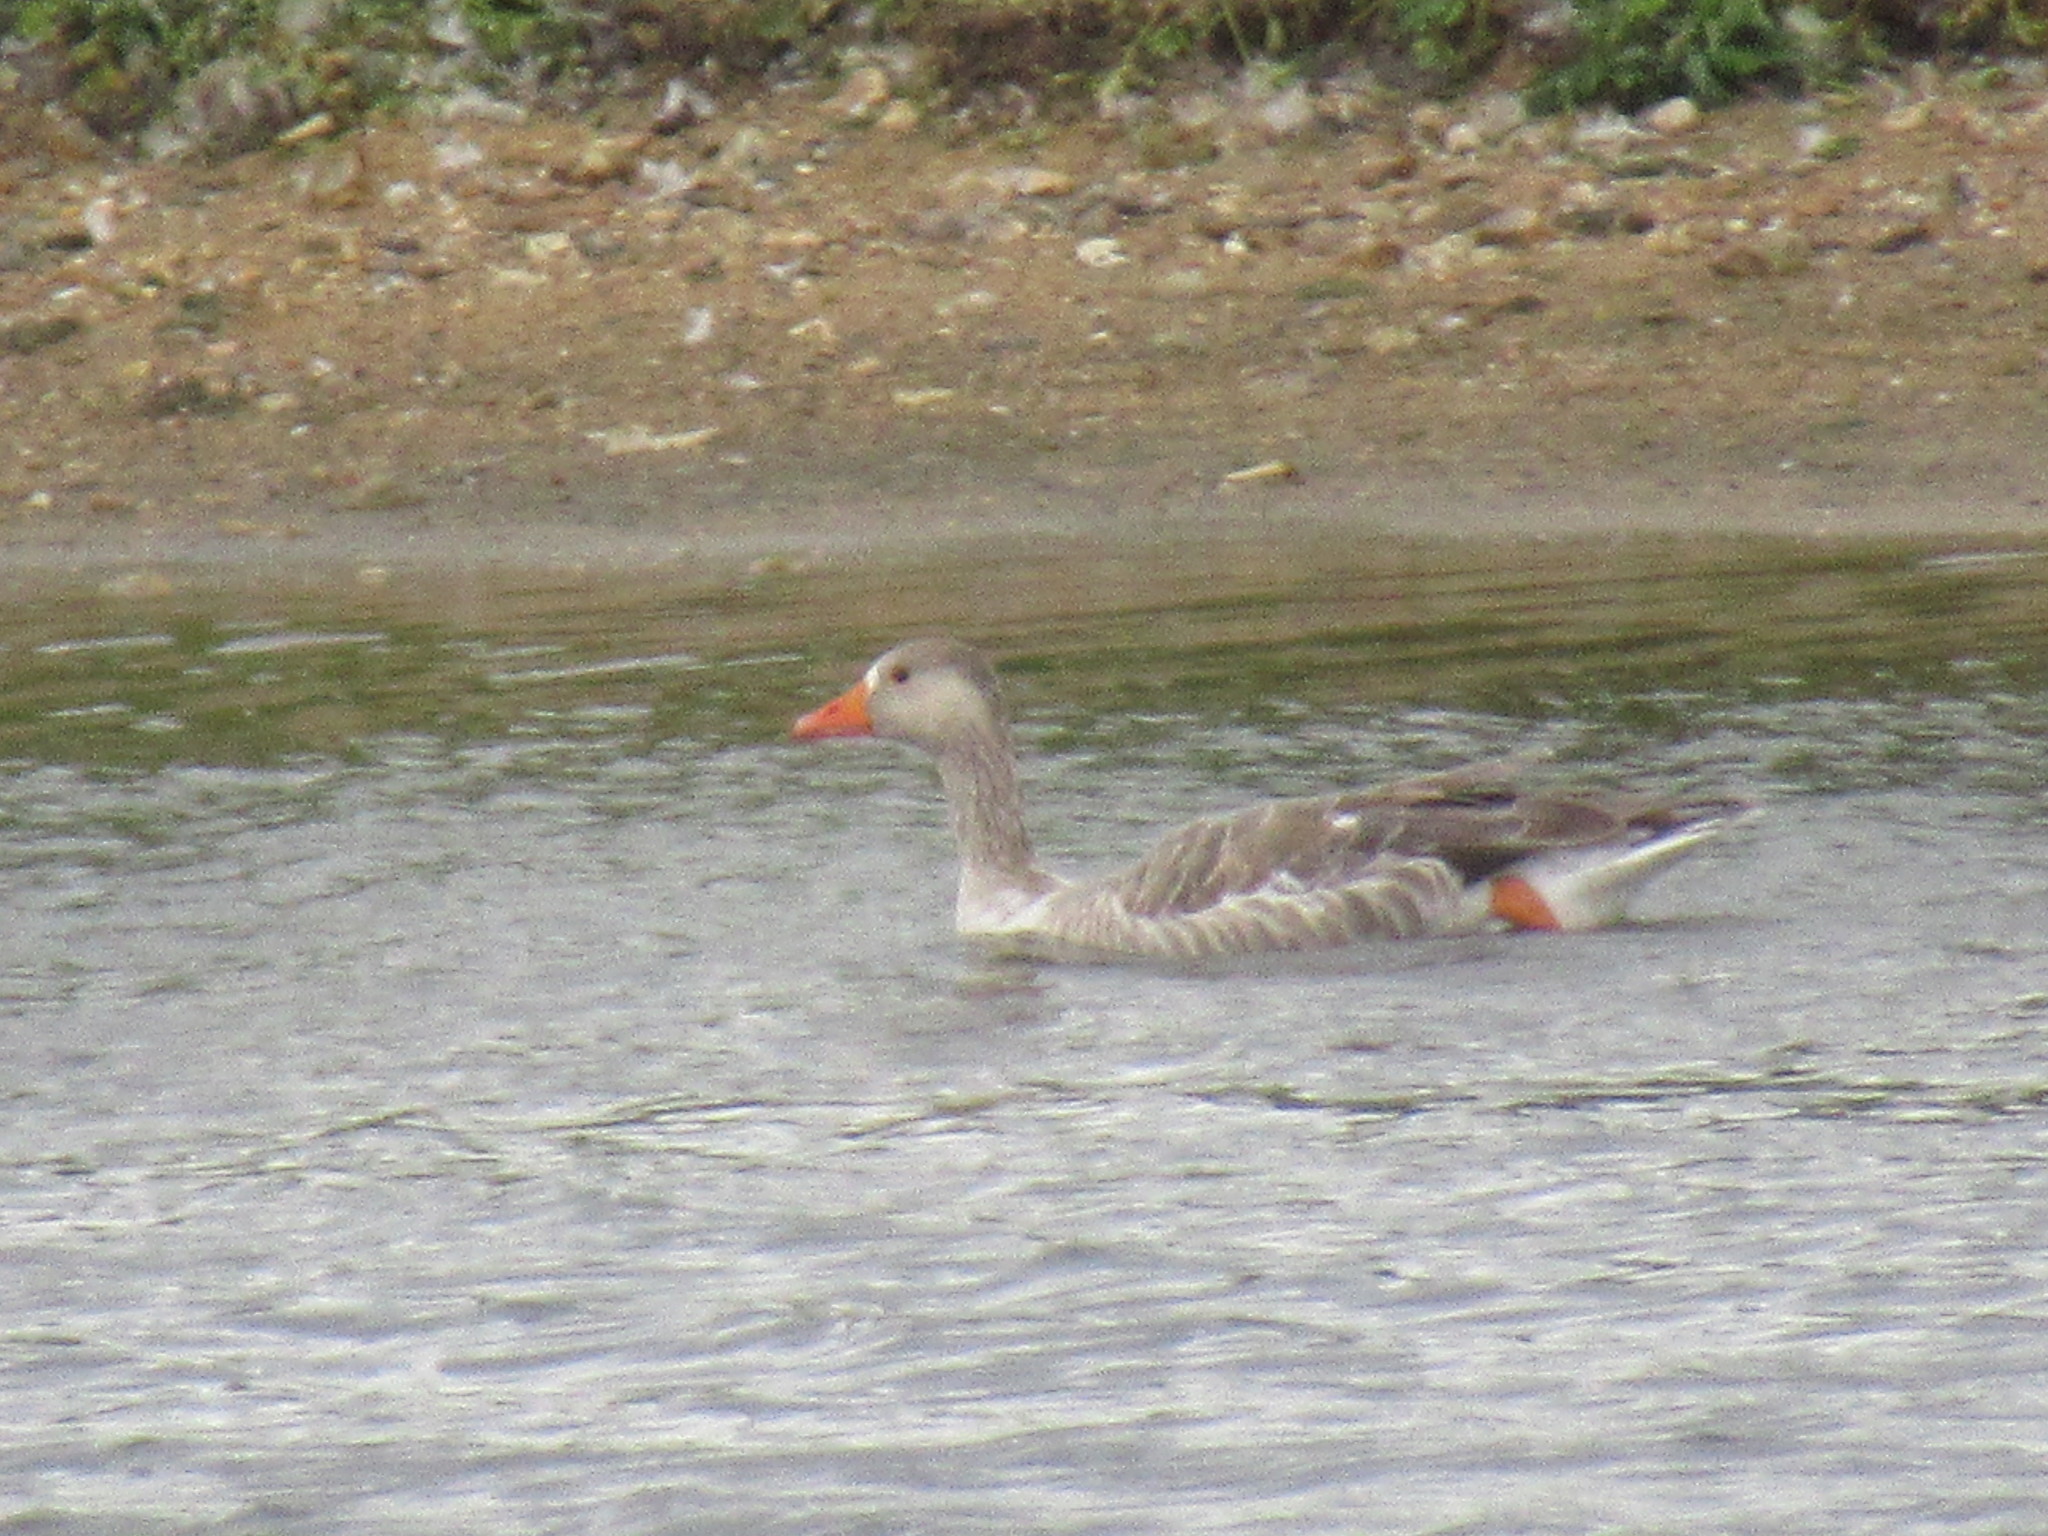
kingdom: Animalia
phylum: Chordata
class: Aves
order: Anseriformes
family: Anatidae
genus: Anser
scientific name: Anser anser
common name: Greylag goose
